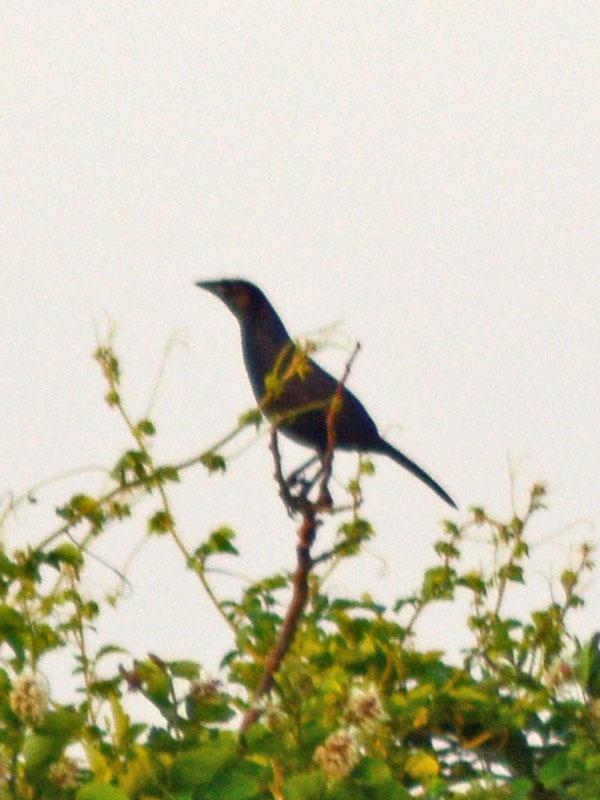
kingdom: Animalia
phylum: Chordata
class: Aves
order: Passeriformes
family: Icteridae
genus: Dives
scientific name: Dives dives
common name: Melodious blackbird
